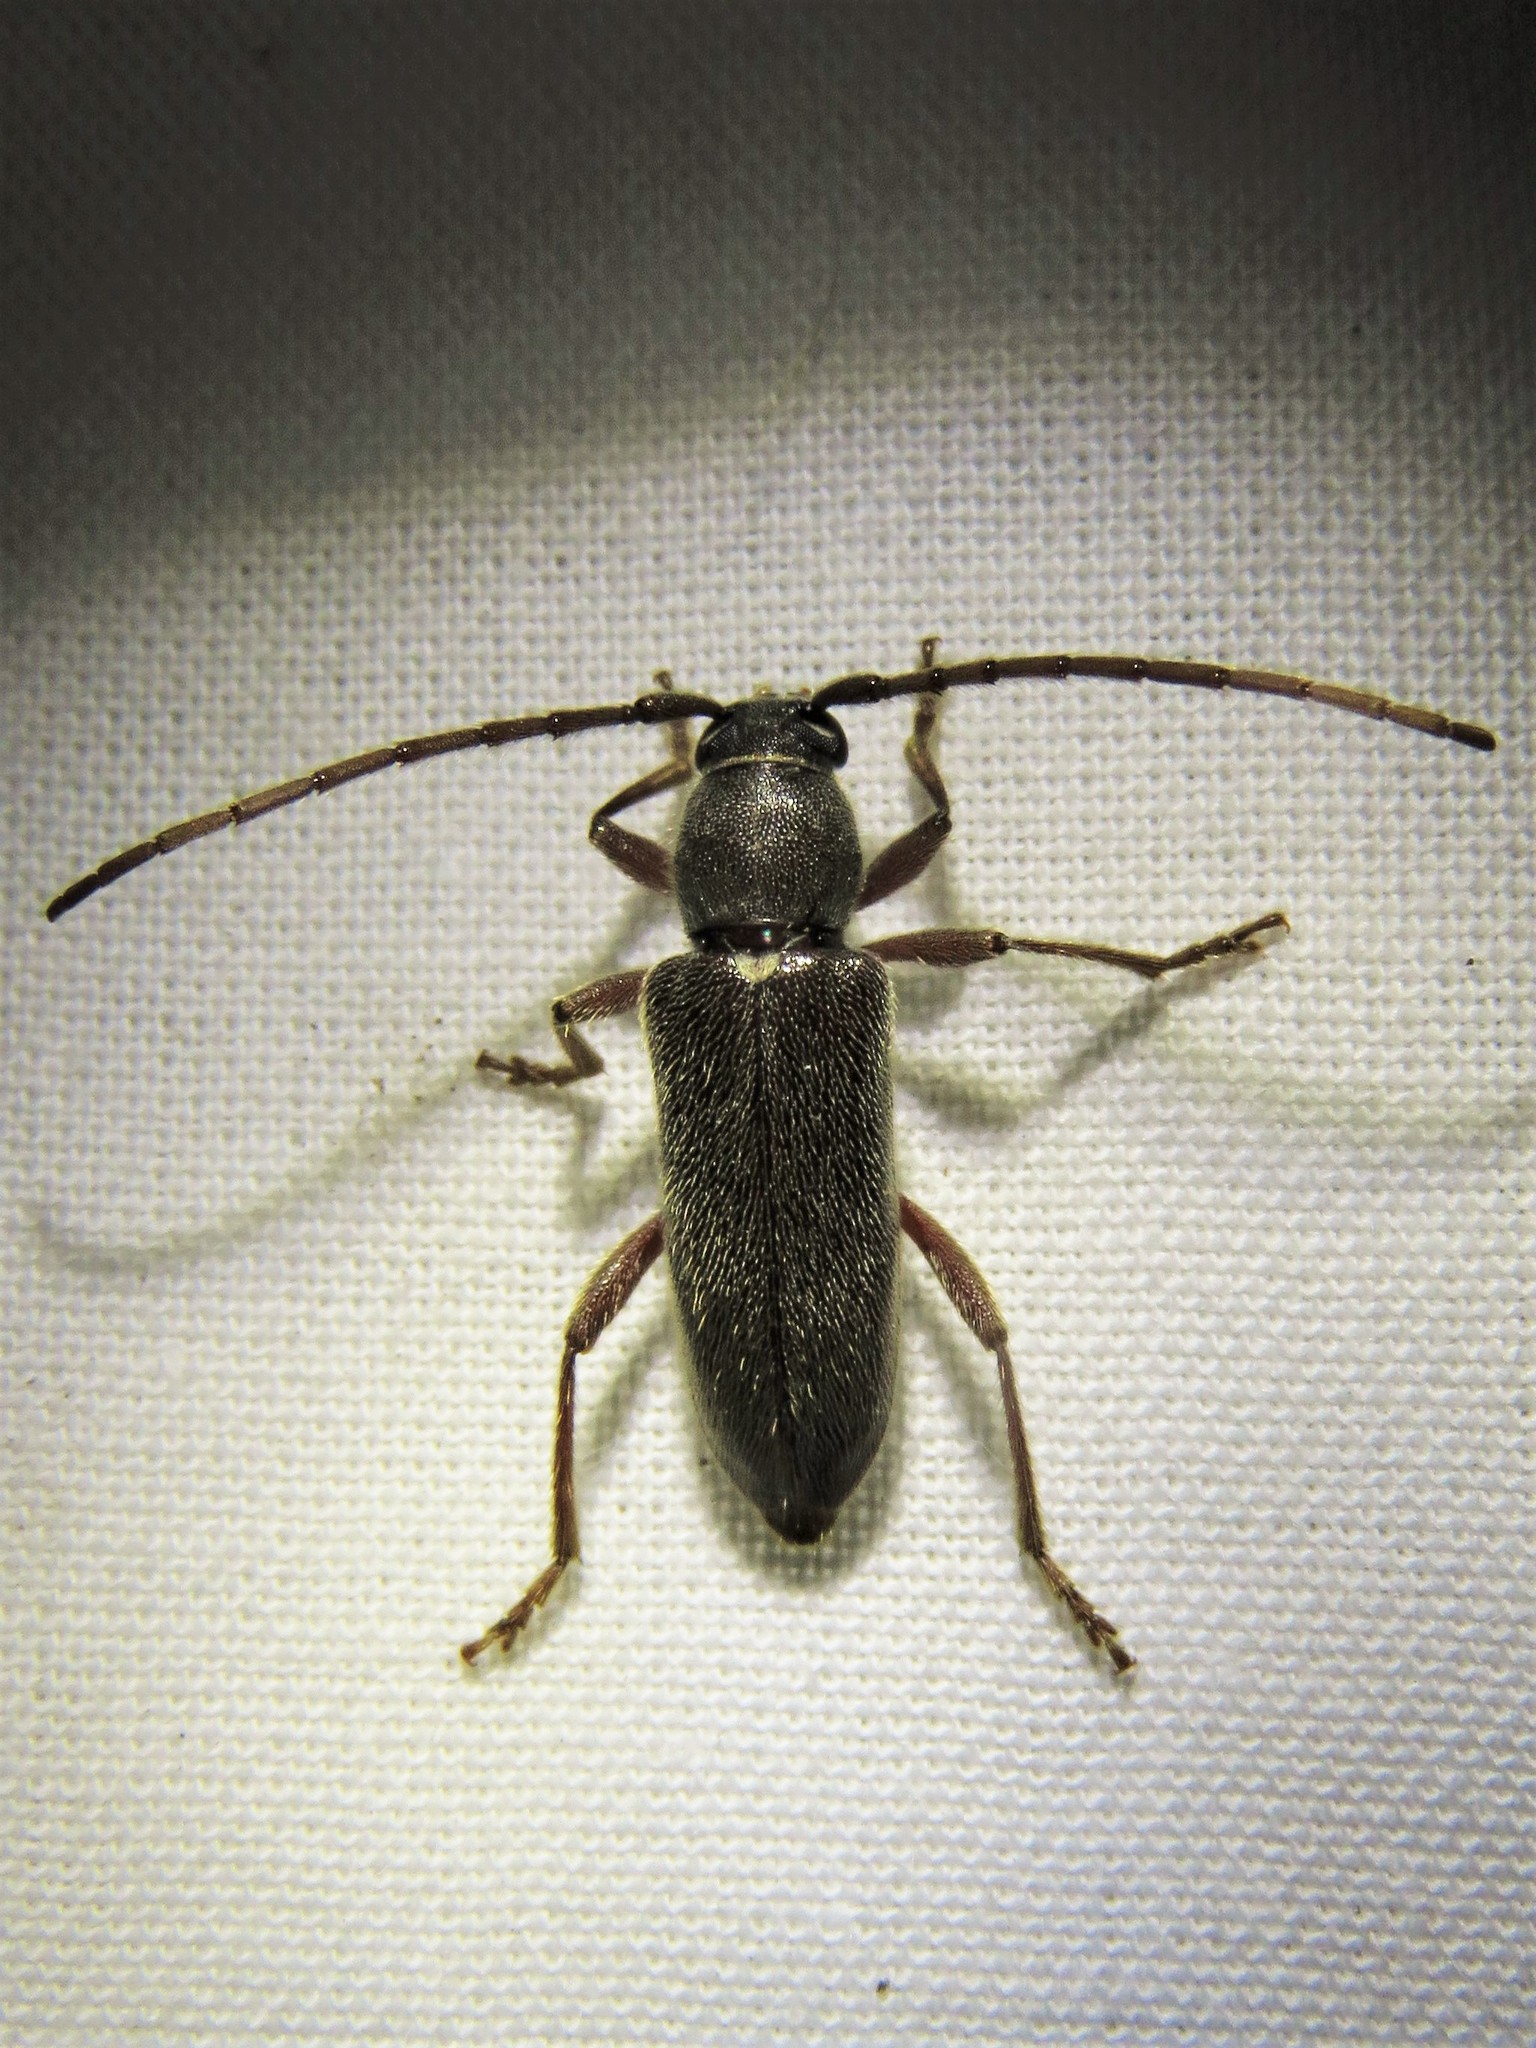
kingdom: Animalia
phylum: Arthropoda
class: Insecta
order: Coleoptera
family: Cerambycidae
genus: Anelaphus
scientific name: Anelaphus moestus
